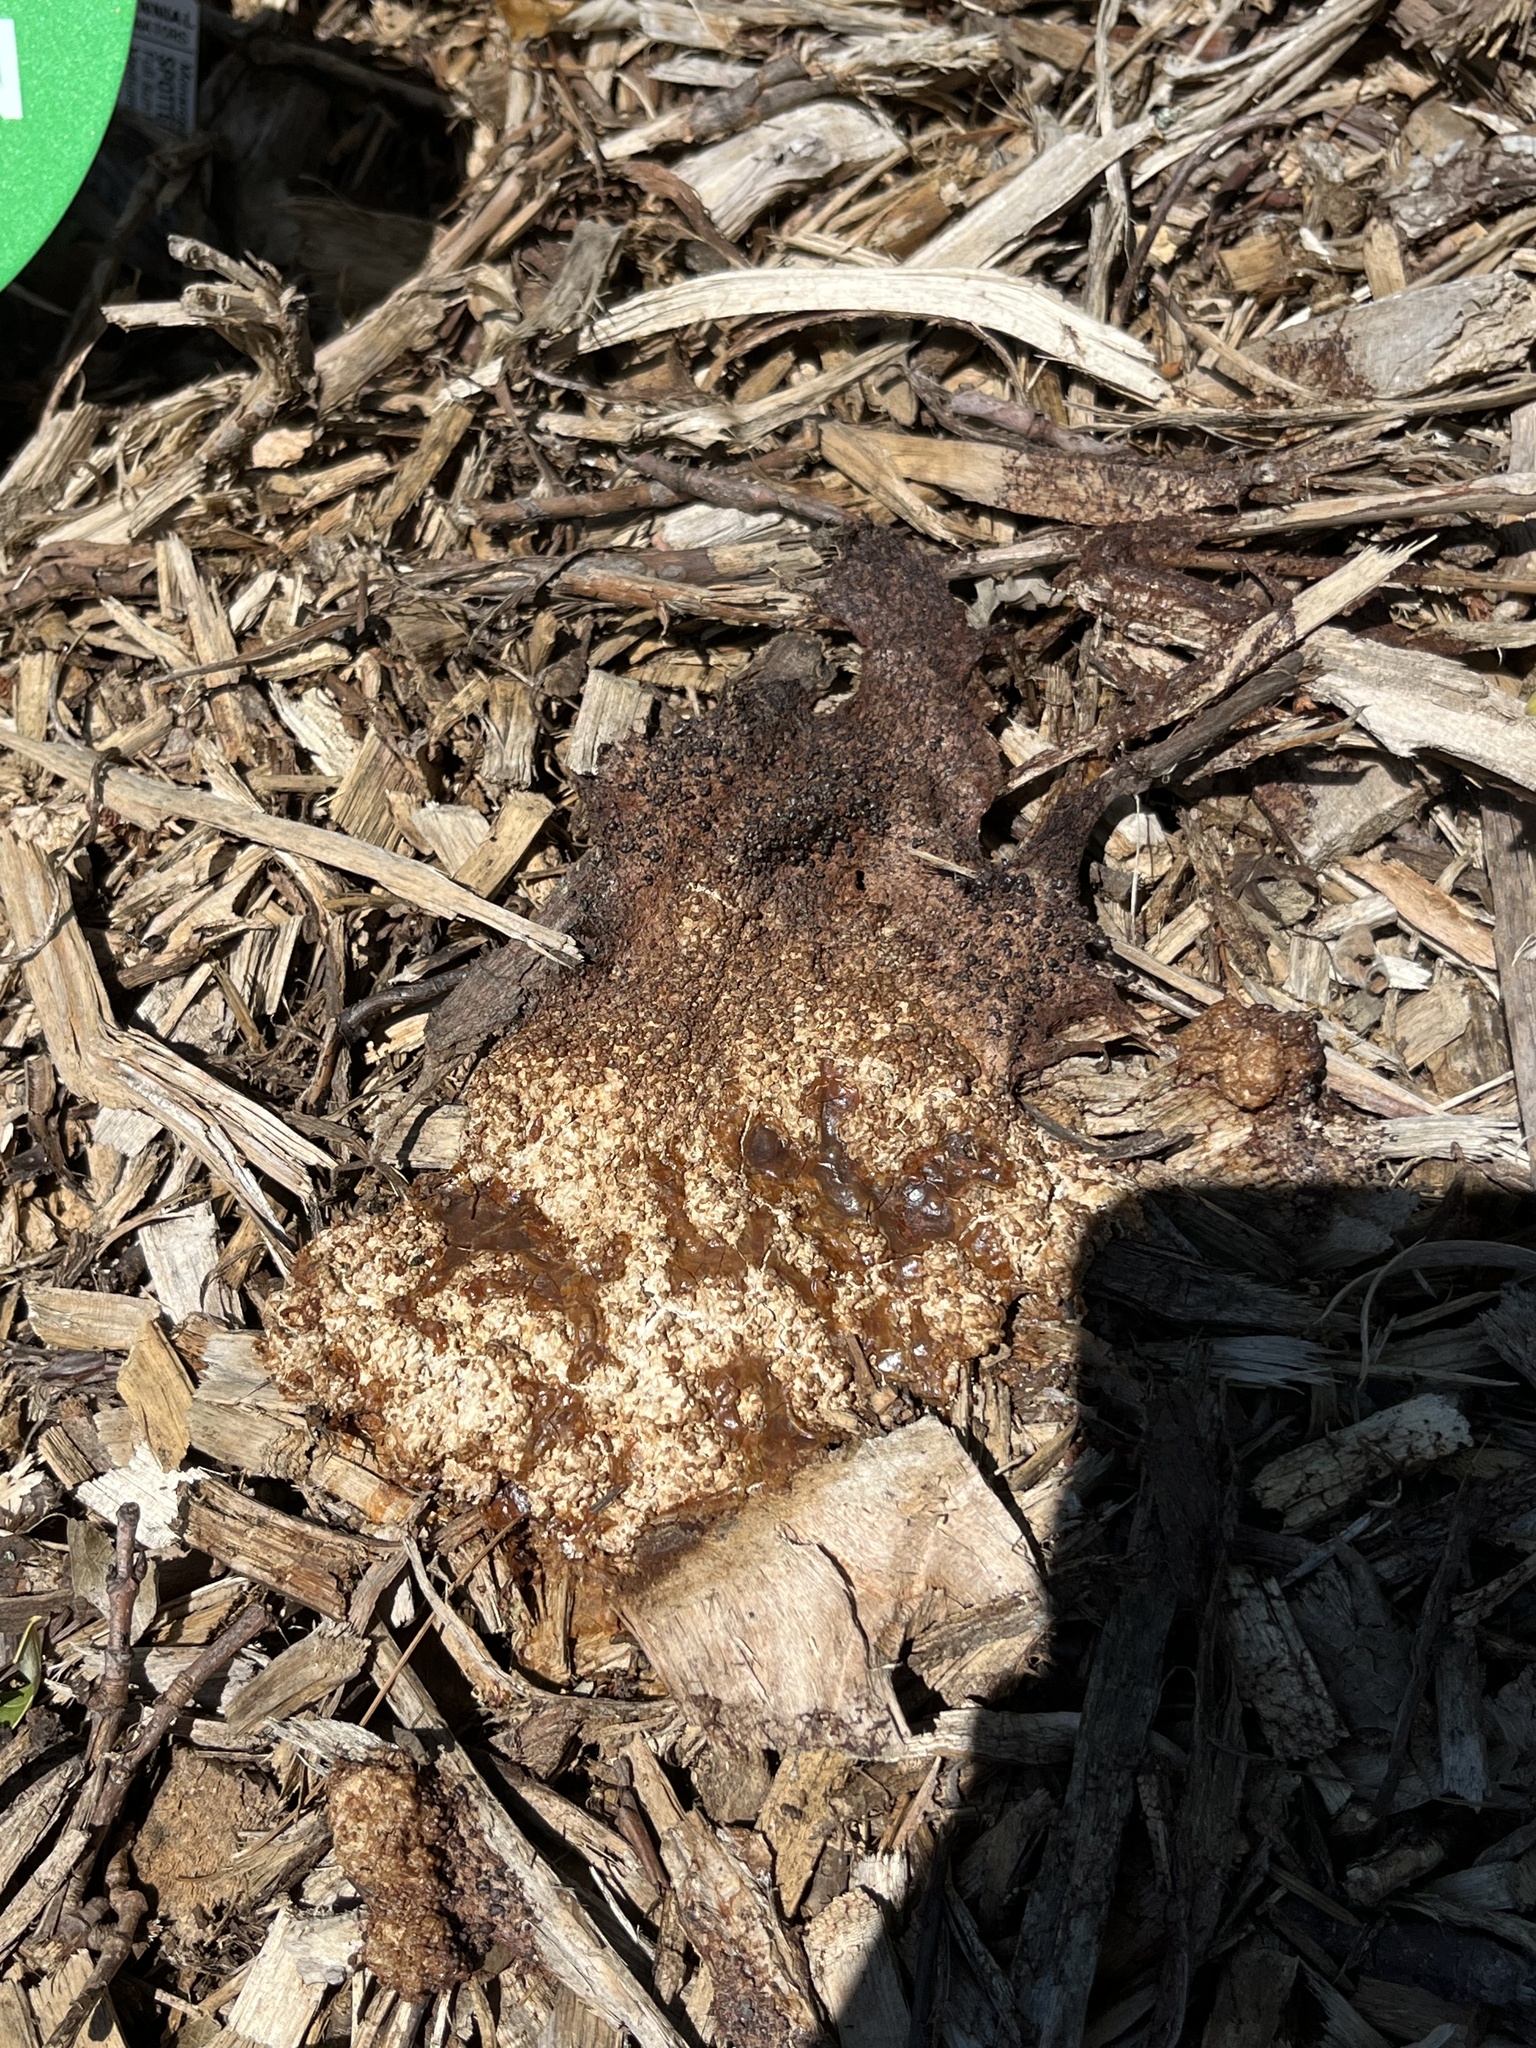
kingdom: Protozoa
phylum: Mycetozoa
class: Myxomycetes
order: Physarales
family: Physaraceae
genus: Fuligo
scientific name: Fuligo septica
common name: Dog vomit slime mold
